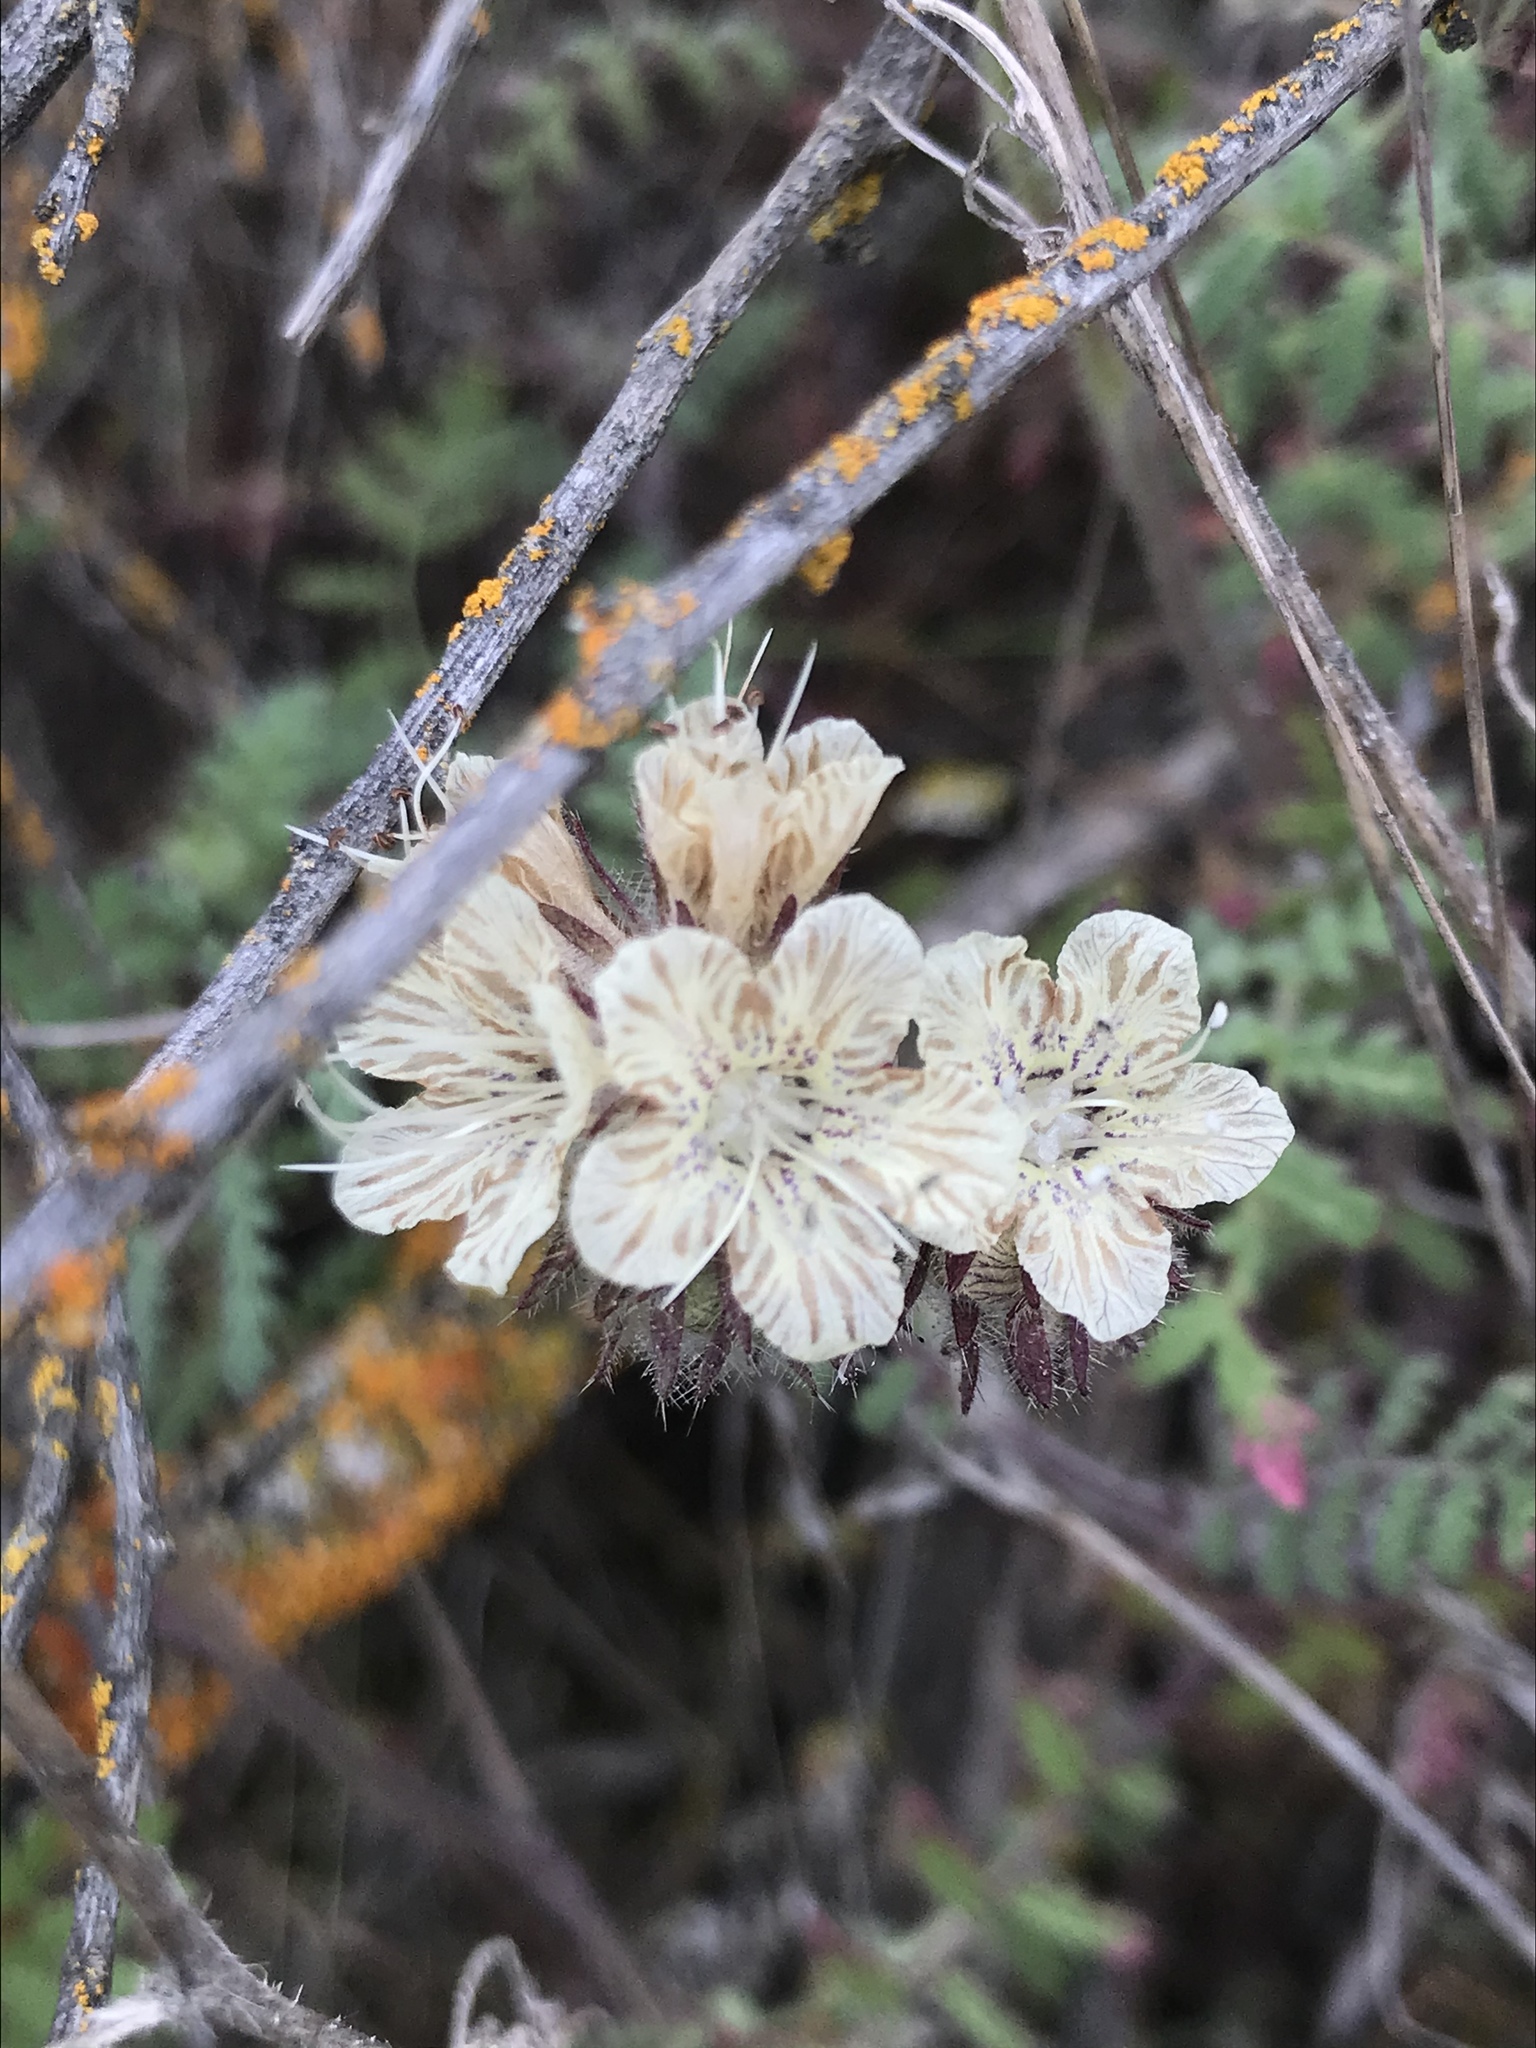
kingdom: Plantae
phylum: Tracheophyta
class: Magnoliopsida
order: Boraginales
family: Hydrophyllaceae
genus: Phacelia
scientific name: Phacelia distans
